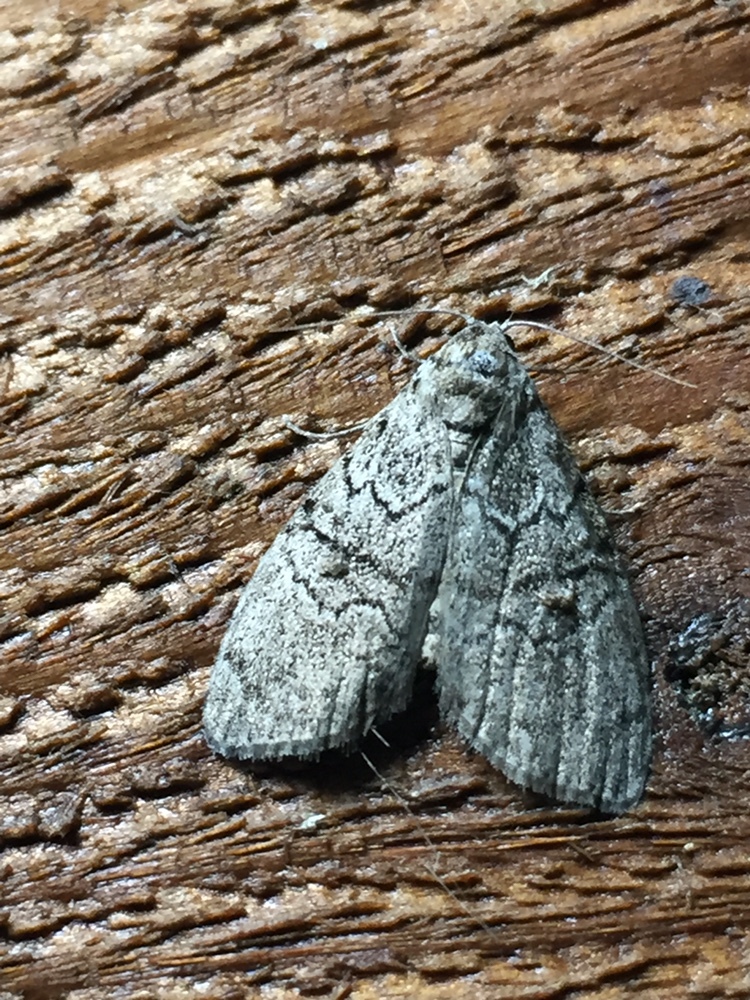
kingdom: Animalia
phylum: Arthropoda
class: Insecta
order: Lepidoptera
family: Nolidae
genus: Uraba
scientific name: Uraba lugens
